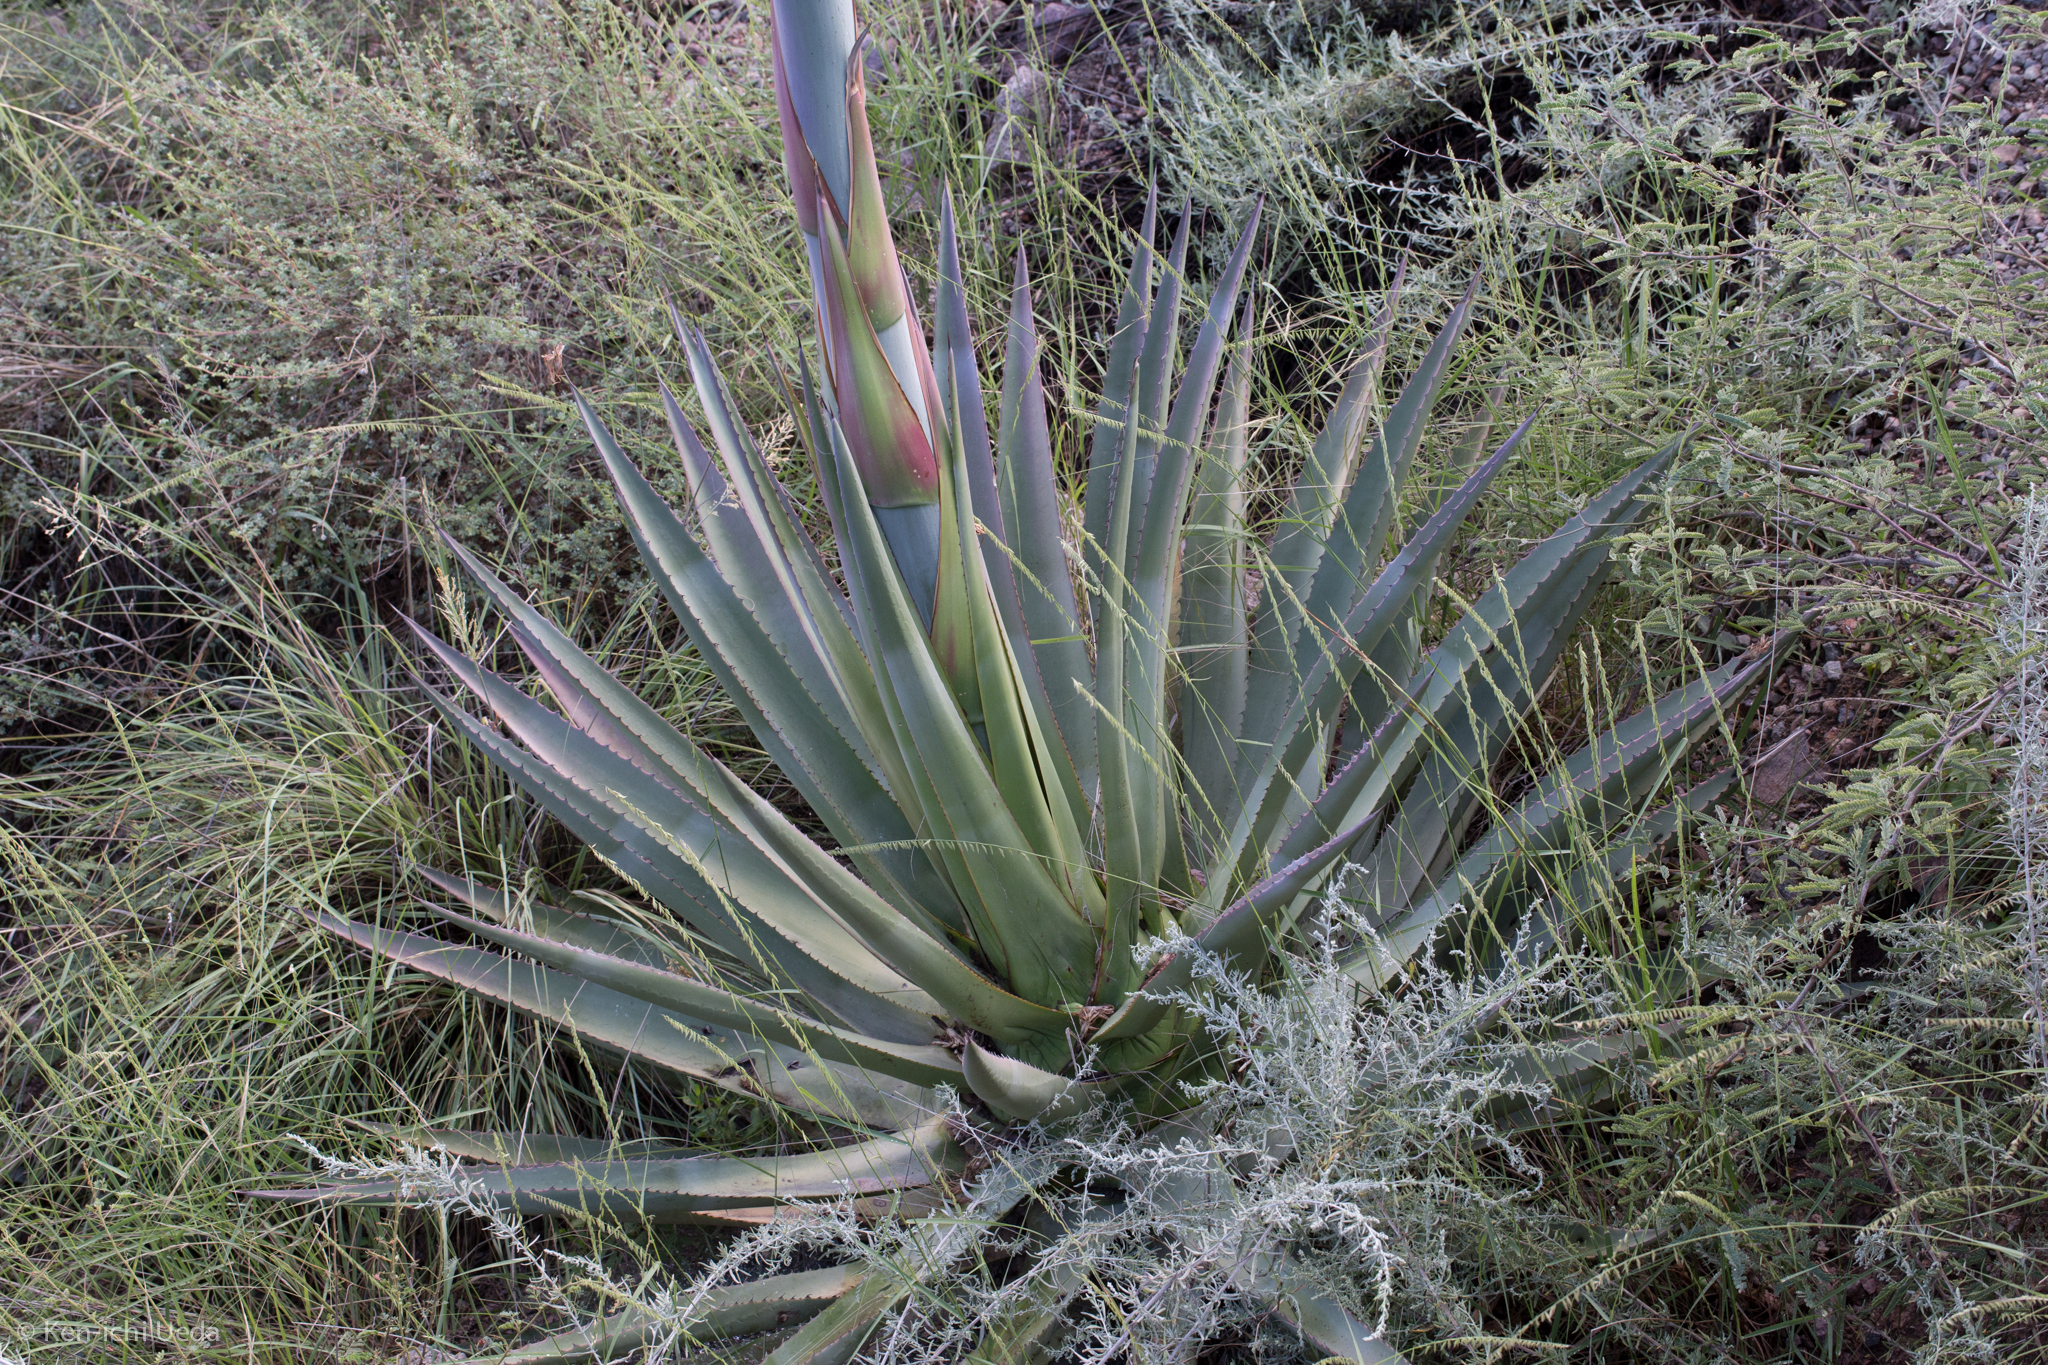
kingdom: Plantae
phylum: Tracheophyta
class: Liliopsida
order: Asparagales
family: Asparagaceae
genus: Agave
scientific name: Agave palmeri
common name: Palmer agave
